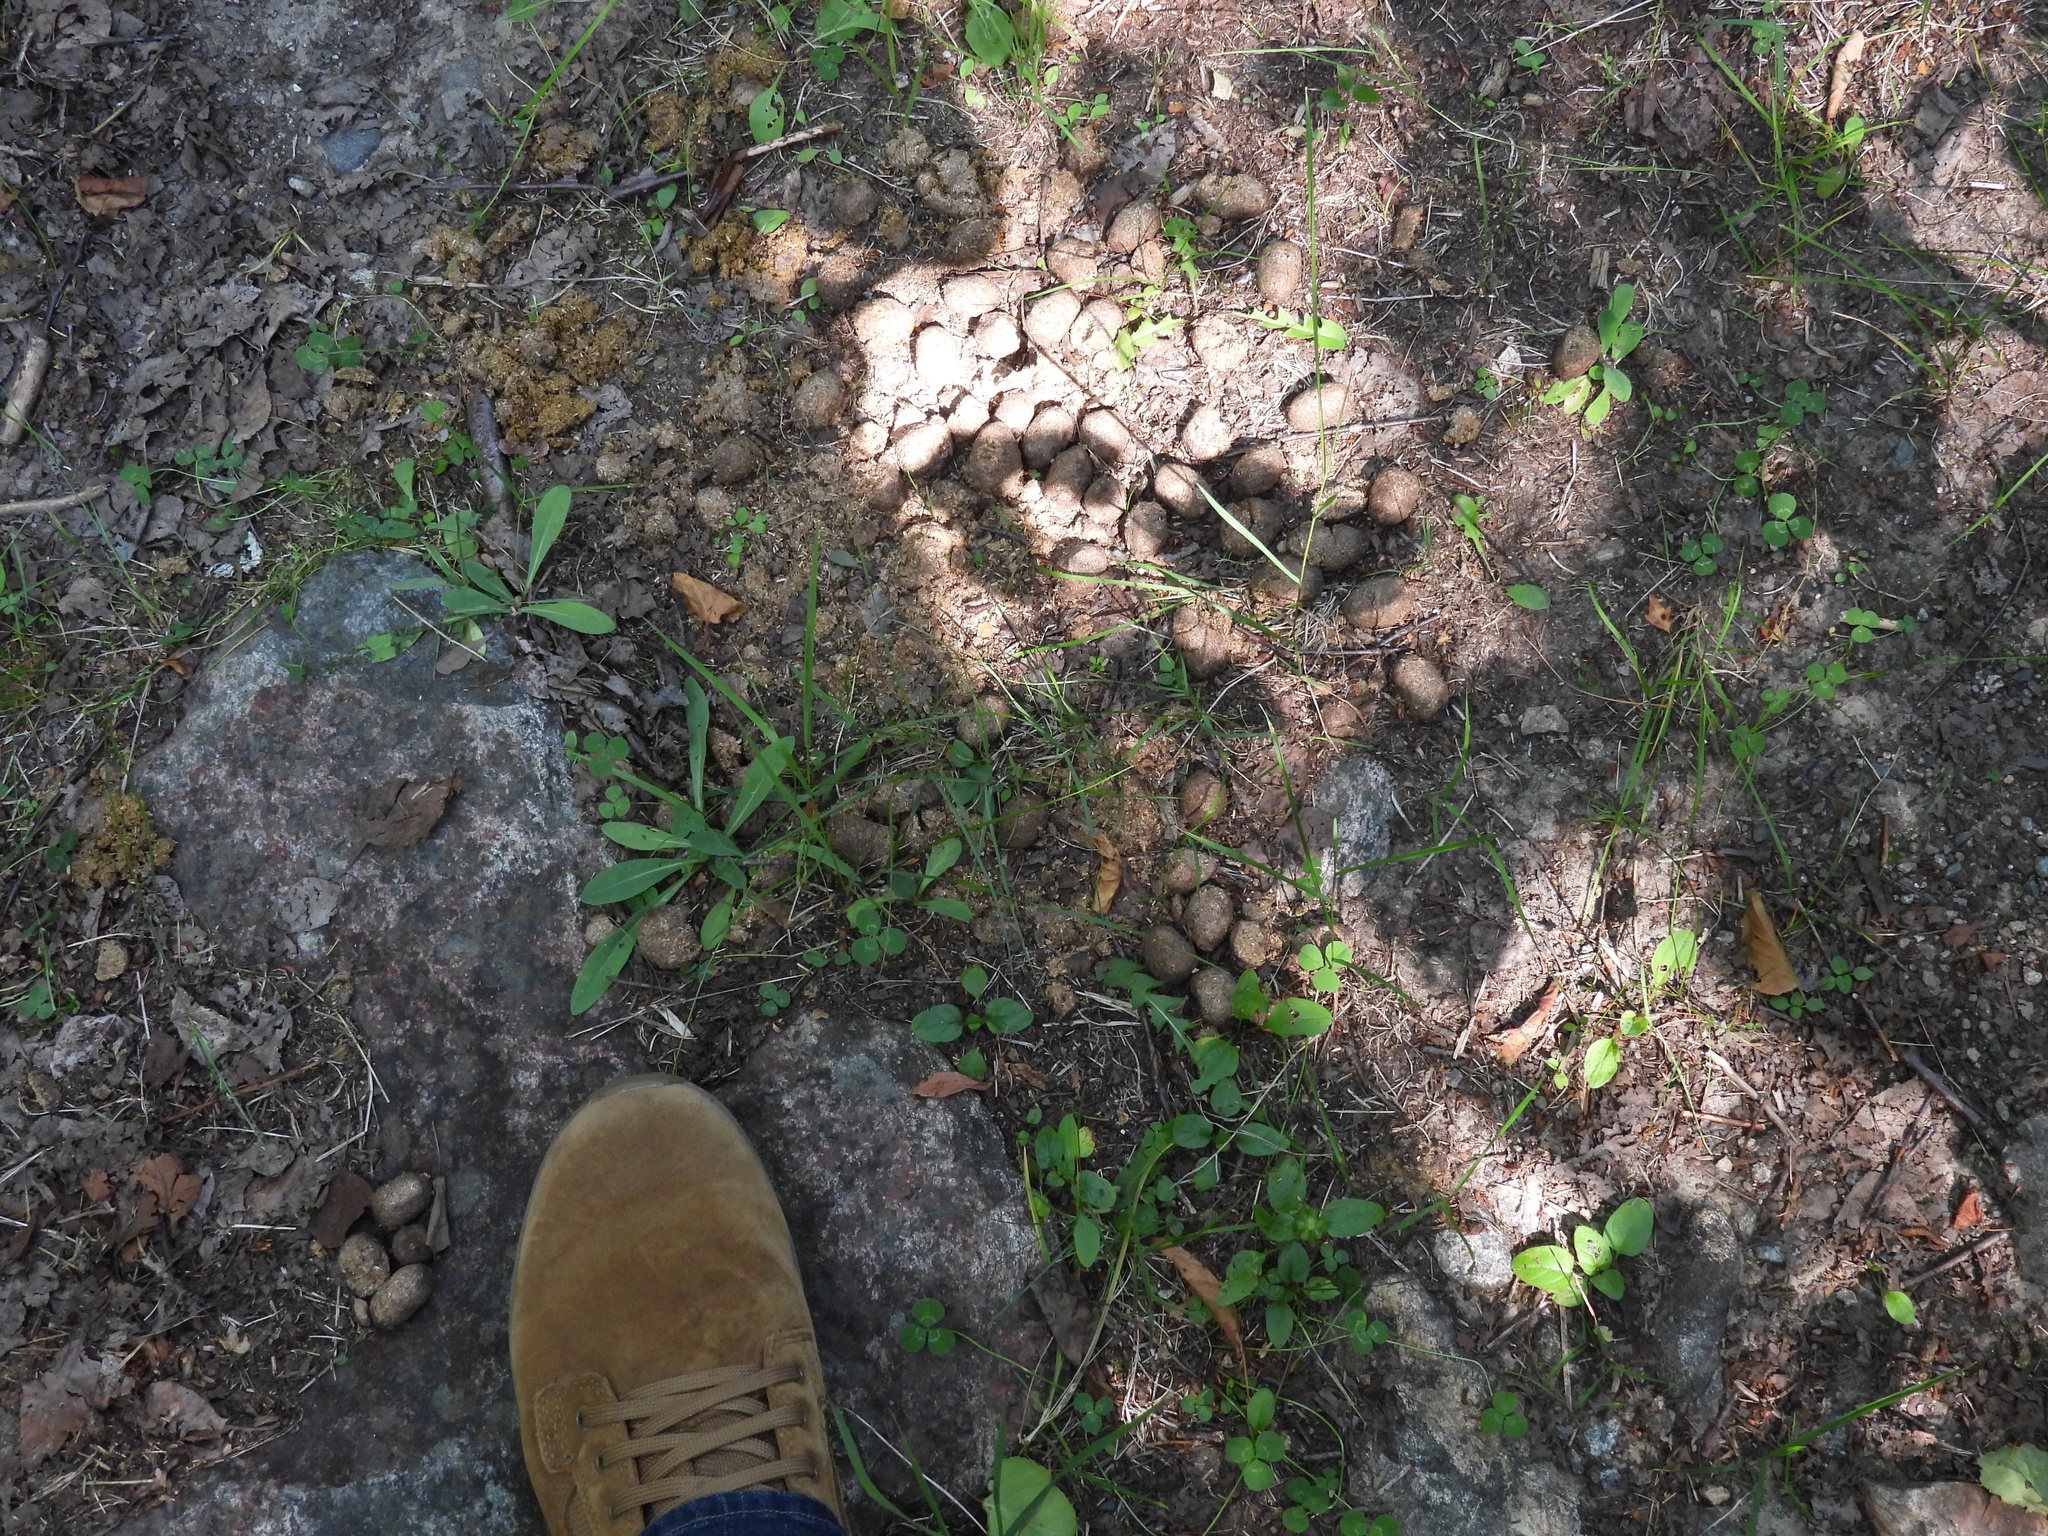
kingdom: Animalia
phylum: Chordata
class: Mammalia
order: Artiodactyla
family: Cervidae
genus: Alces
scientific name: Alces alces
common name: Moose
